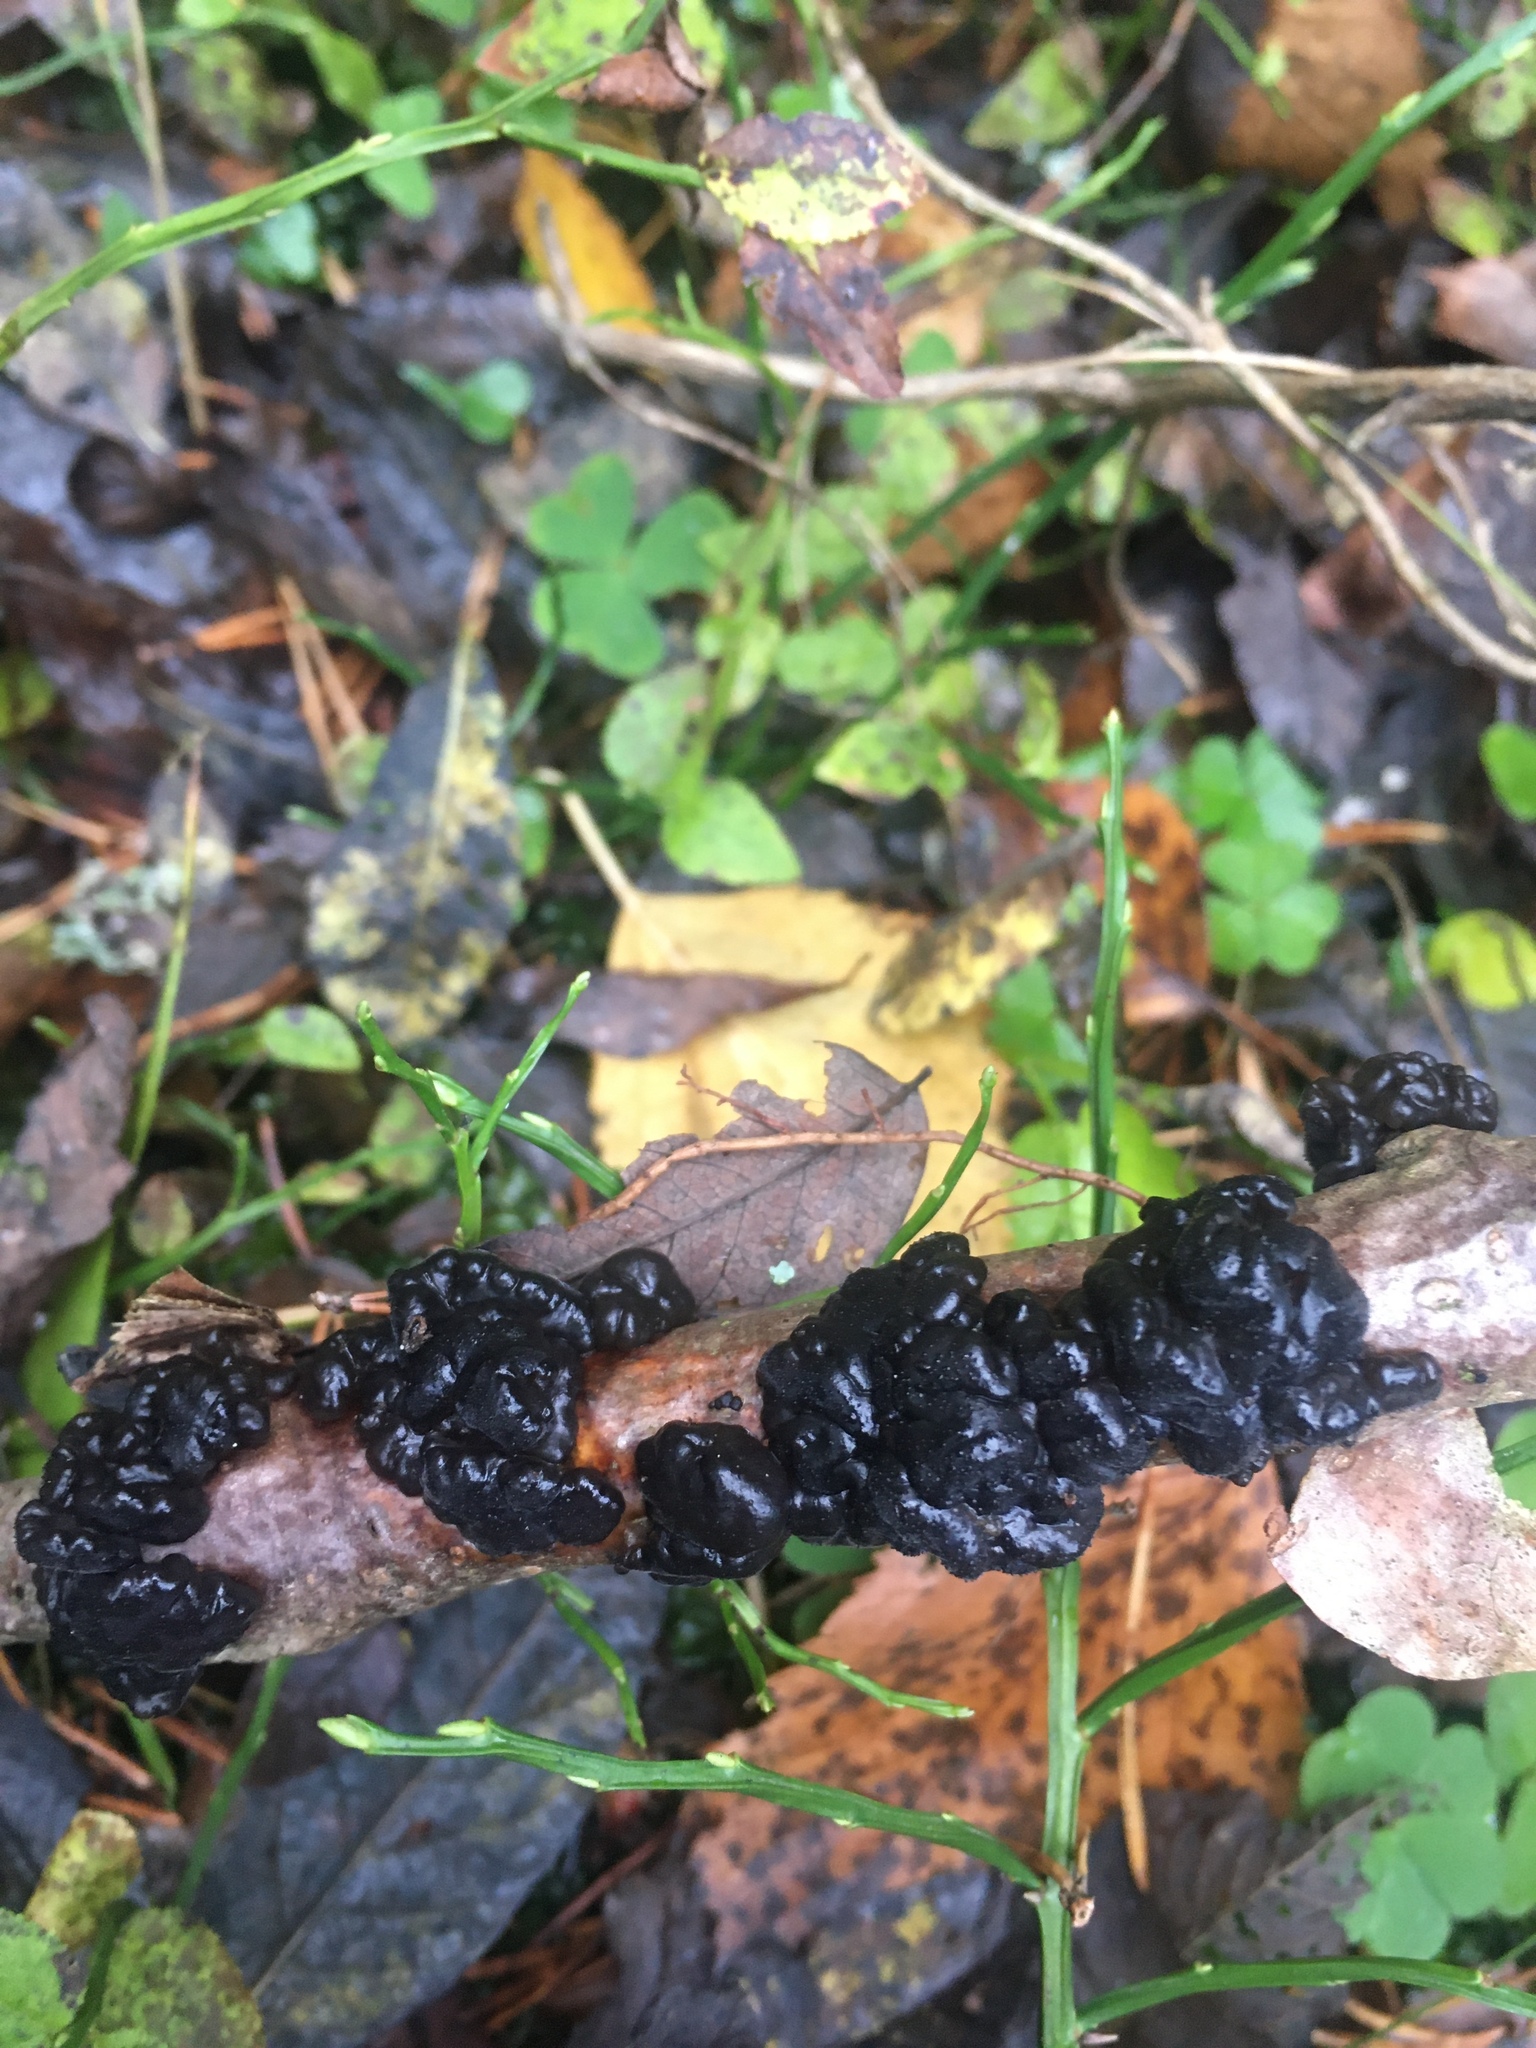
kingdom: Fungi
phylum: Basidiomycota
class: Agaricomycetes
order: Auriculariales
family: Auriculariaceae
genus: Exidia
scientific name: Exidia nigricans
